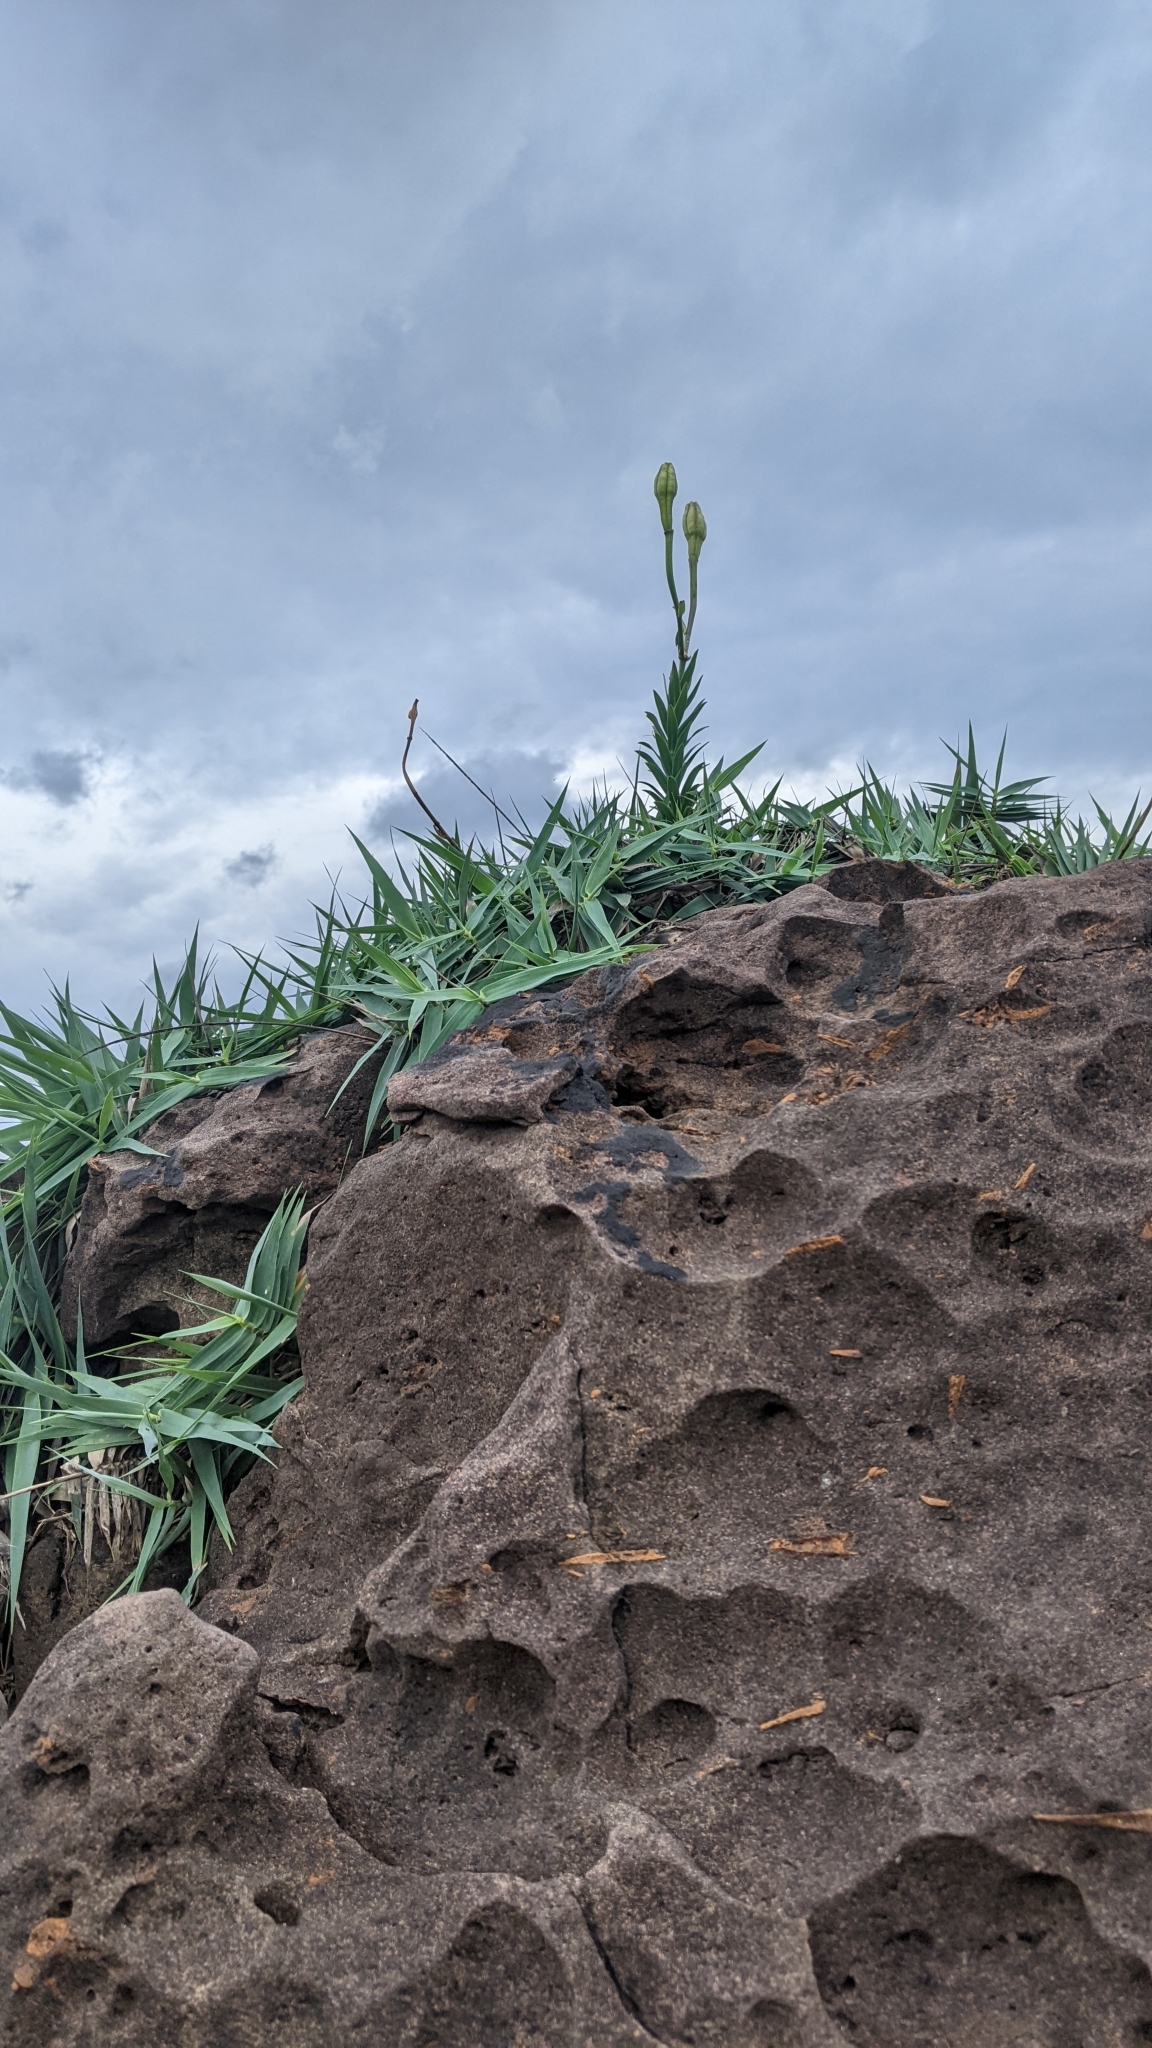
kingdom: Plantae
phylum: Tracheophyta
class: Liliopsida
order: Liliales
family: Liliaceae
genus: Lilium
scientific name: Lilium longiflorum
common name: Easter lily
